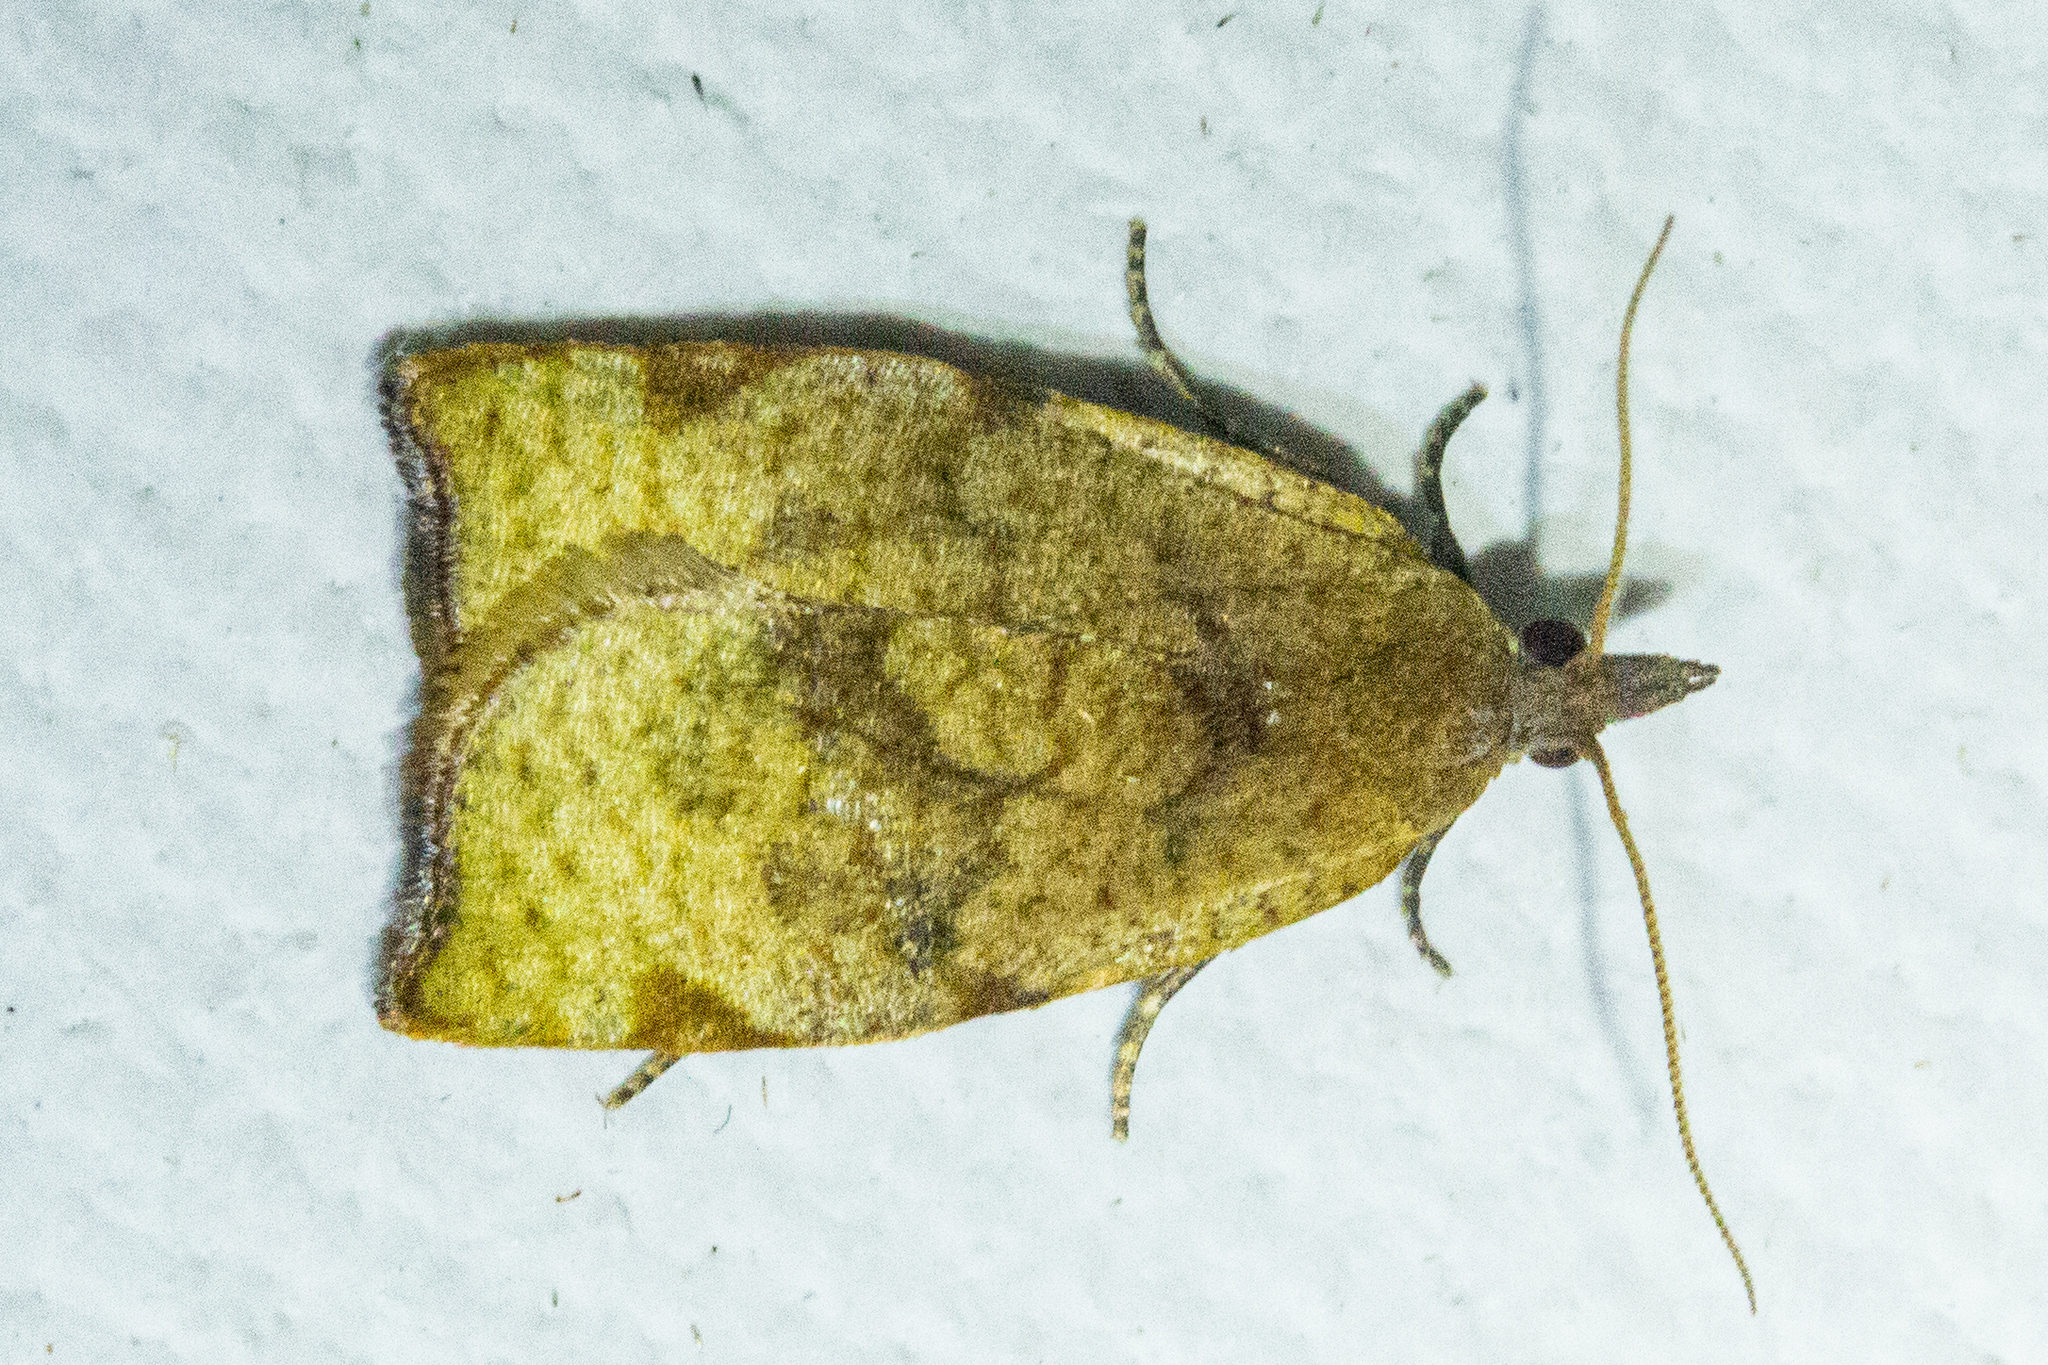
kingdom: Animalia
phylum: Arthropoda
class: Insecta
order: Lepidoptera
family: Tortricidae
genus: Apoctena
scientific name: Apoctena flavescens
